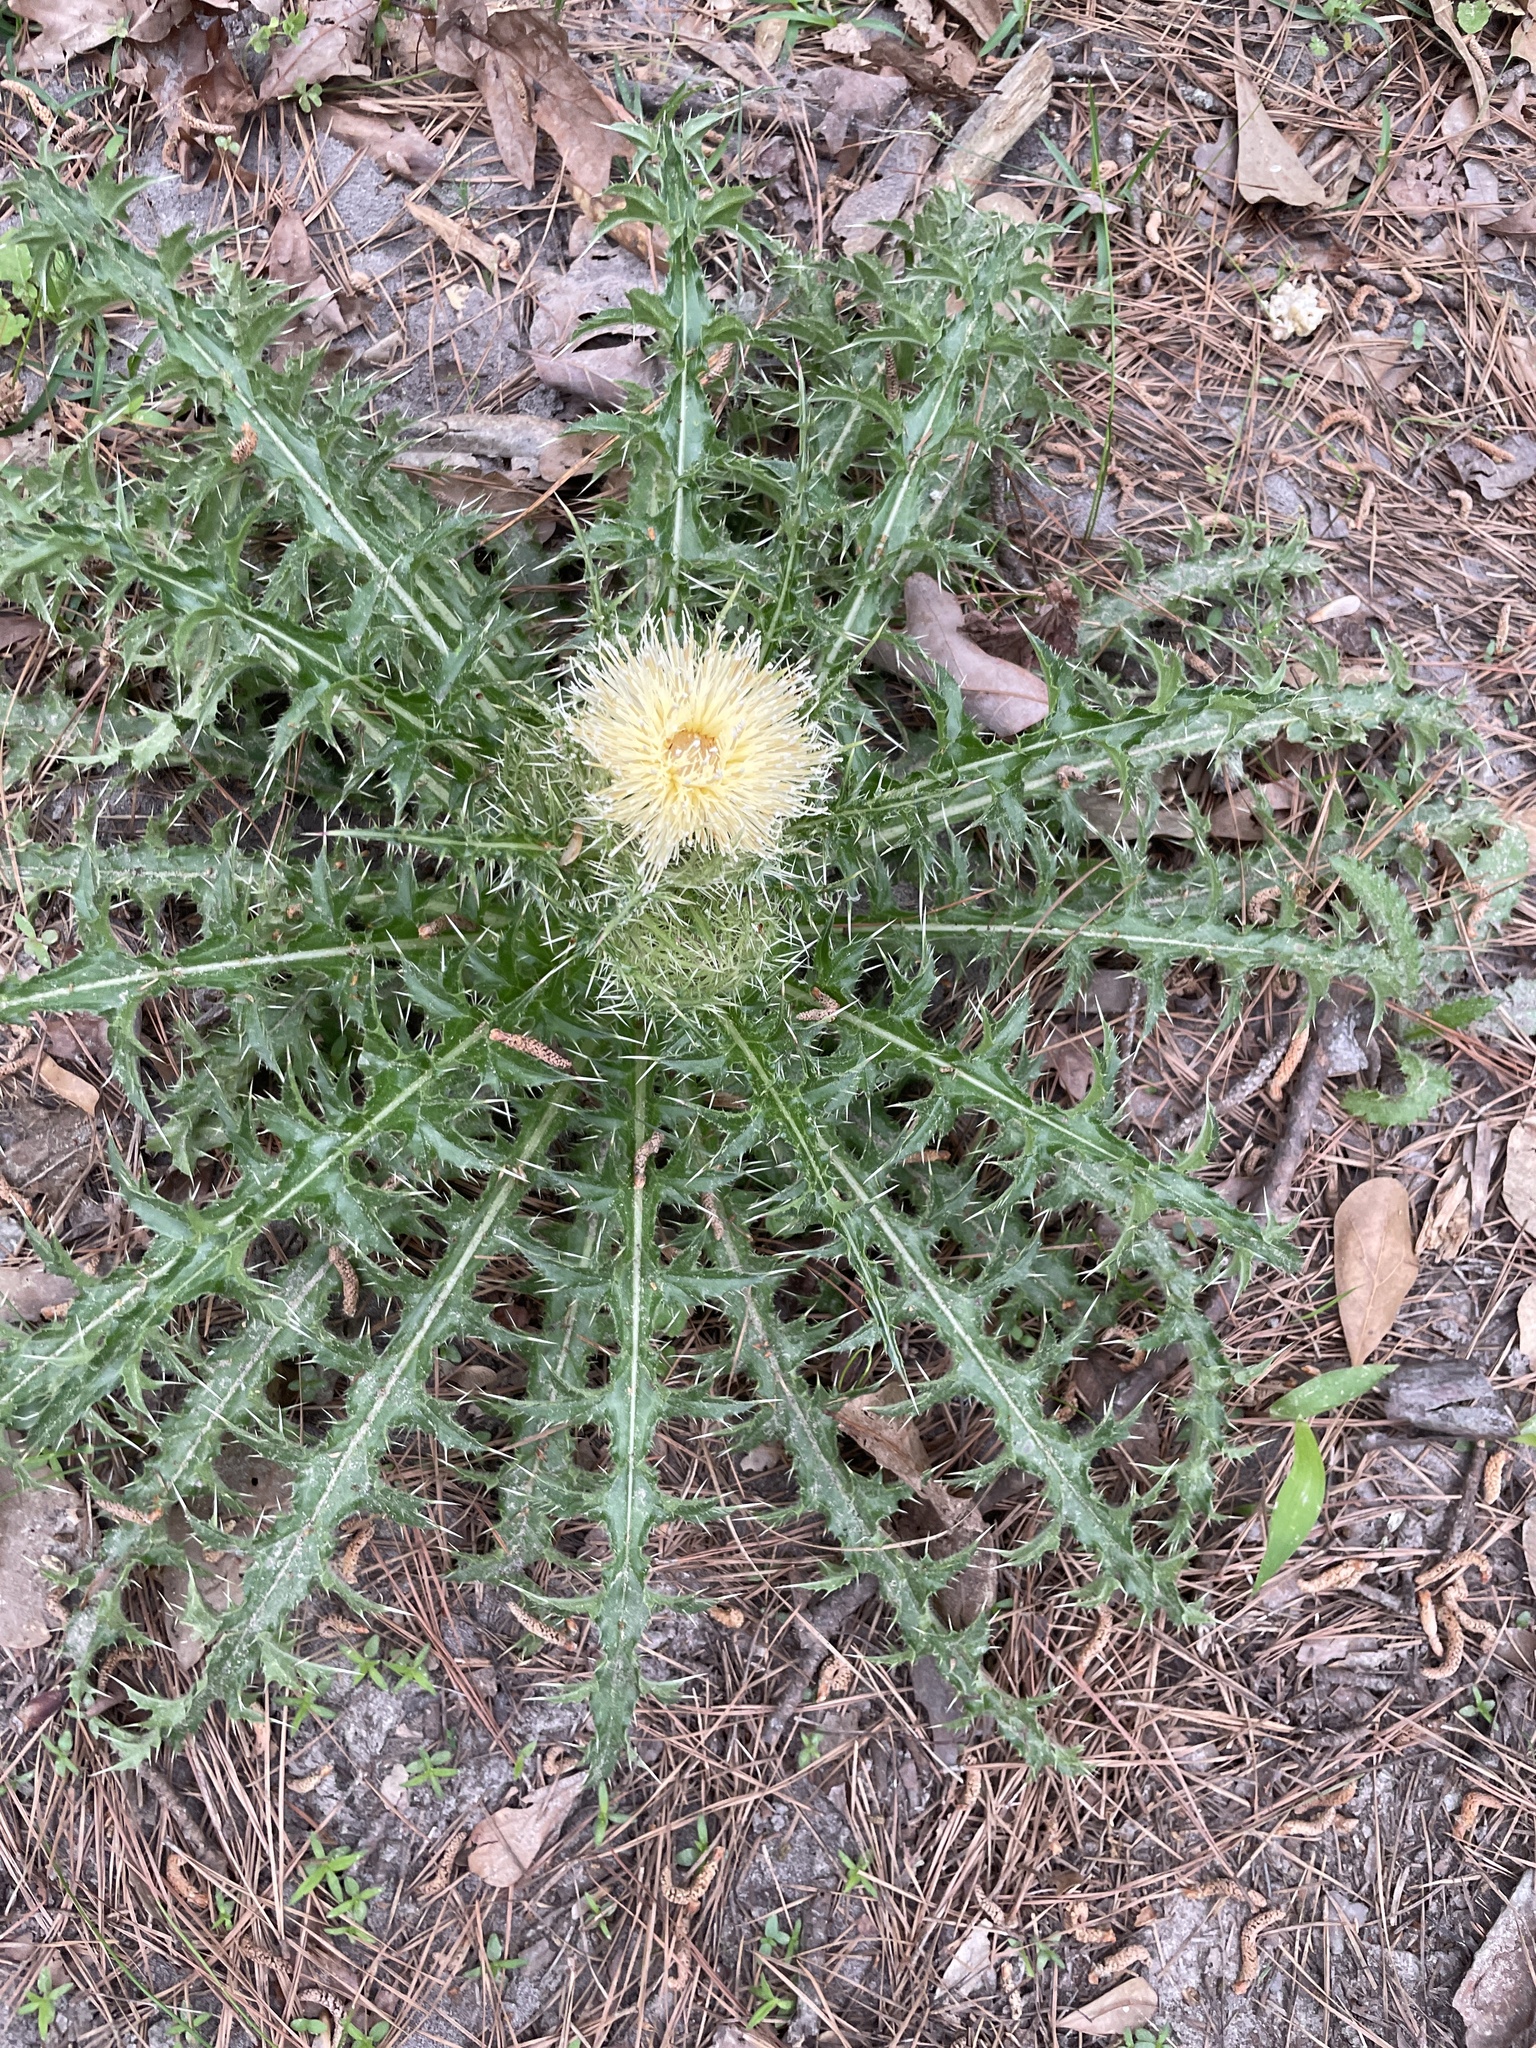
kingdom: Plantae
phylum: Tracheophyta
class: Magnoliopsida
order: Asterales
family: Asteraceae
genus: Cirsium
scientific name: Cirsium horridulum
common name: Bristly thistle
